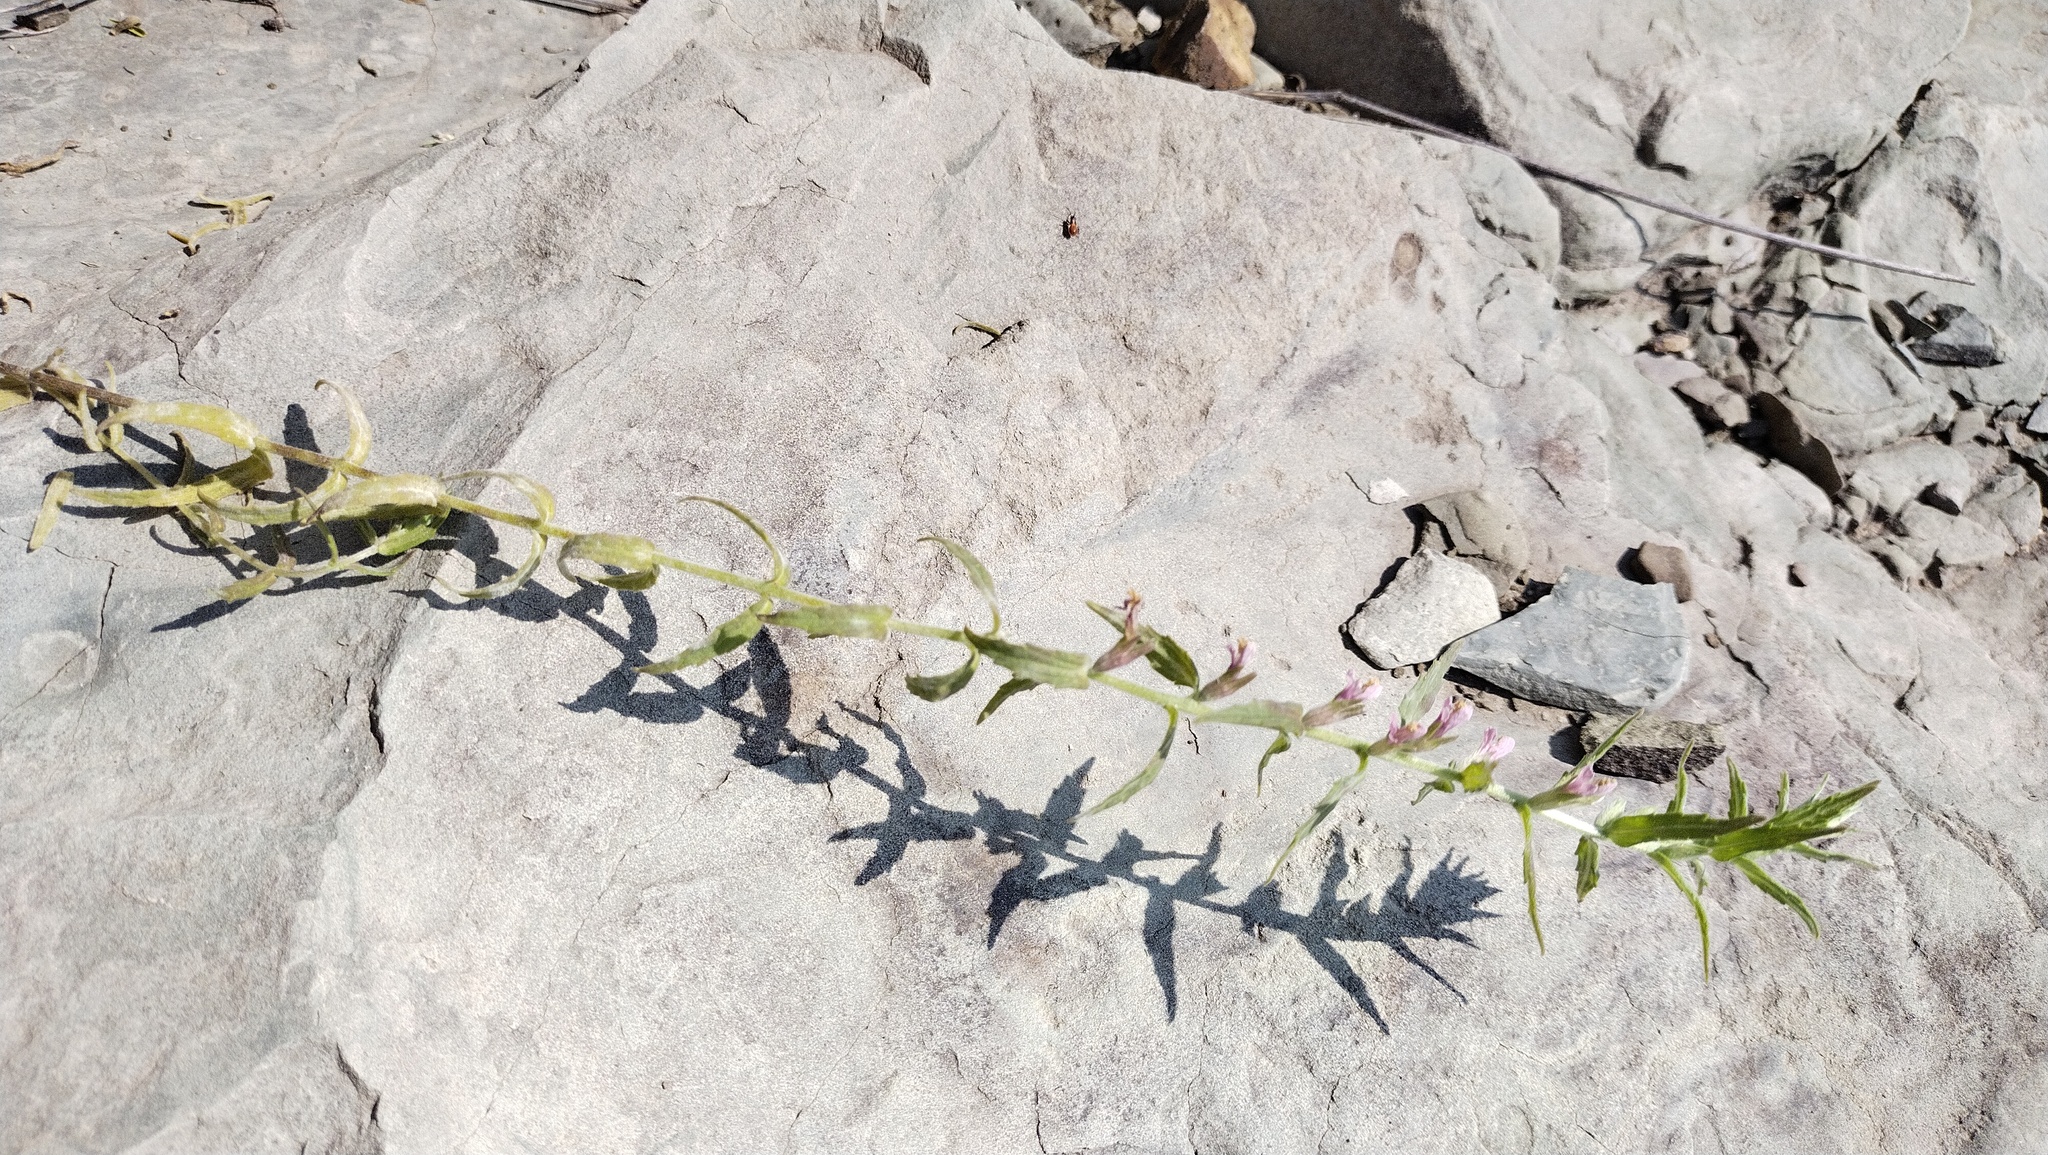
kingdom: Plantae
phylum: Tracheophyta
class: Magnoliopsida
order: Lamiales
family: Orobanchaceae
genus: Odontites
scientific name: Odontites vulgaris
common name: Broomrape
